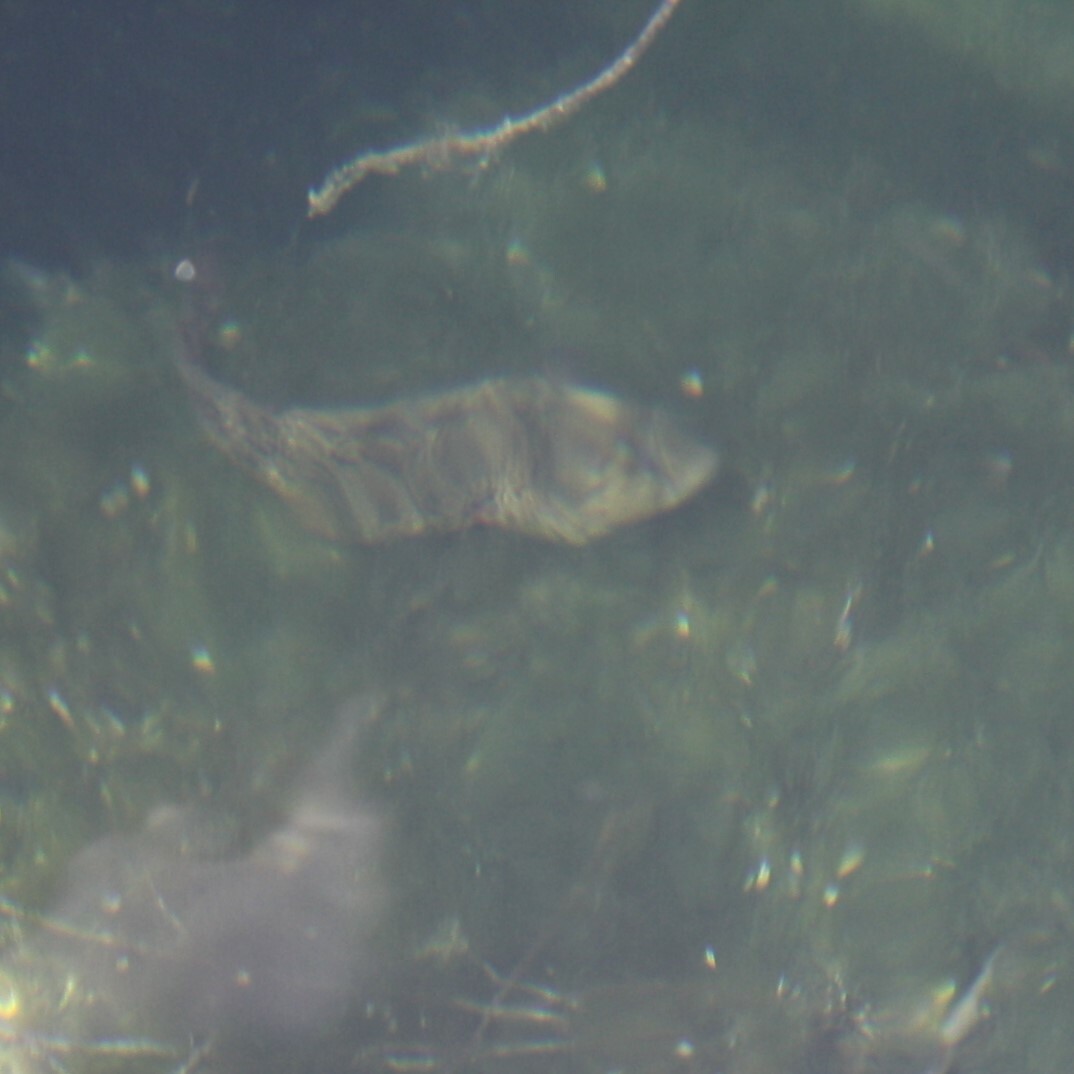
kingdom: Animalia
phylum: Chordata
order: Perciformes
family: Blenniidae
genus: Parablennius
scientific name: Parablennius sanguinolentus
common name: Black sea blenny
